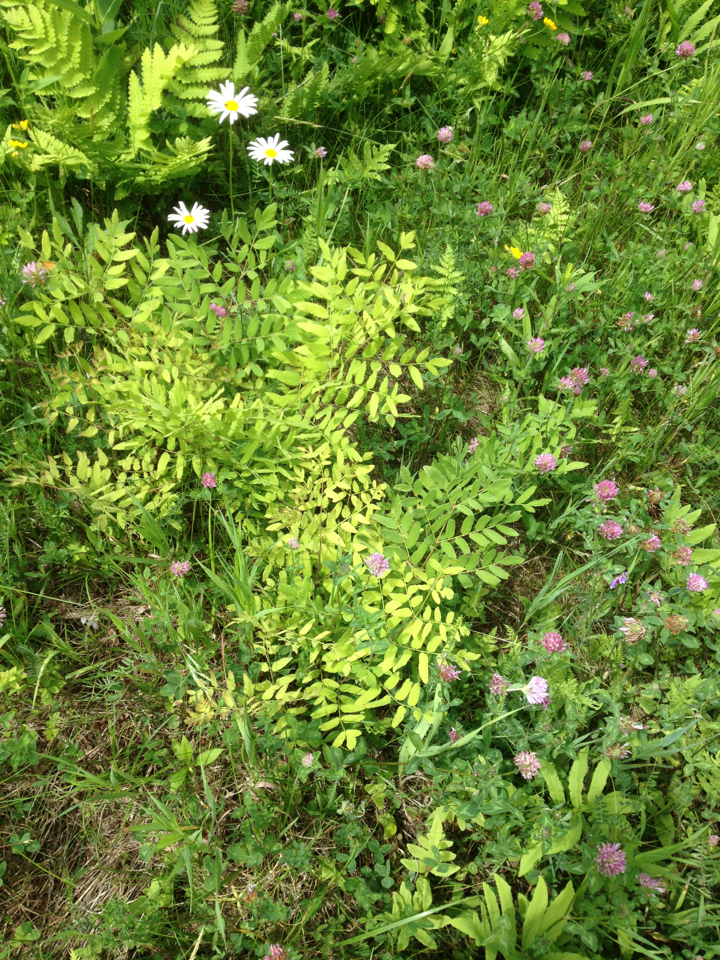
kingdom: Plantae
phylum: Tracheophyta
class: Polypodiopsida
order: Osmundales
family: Osmundaceae
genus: Osmunda
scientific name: Osmunda spectabilis
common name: American royal fern
